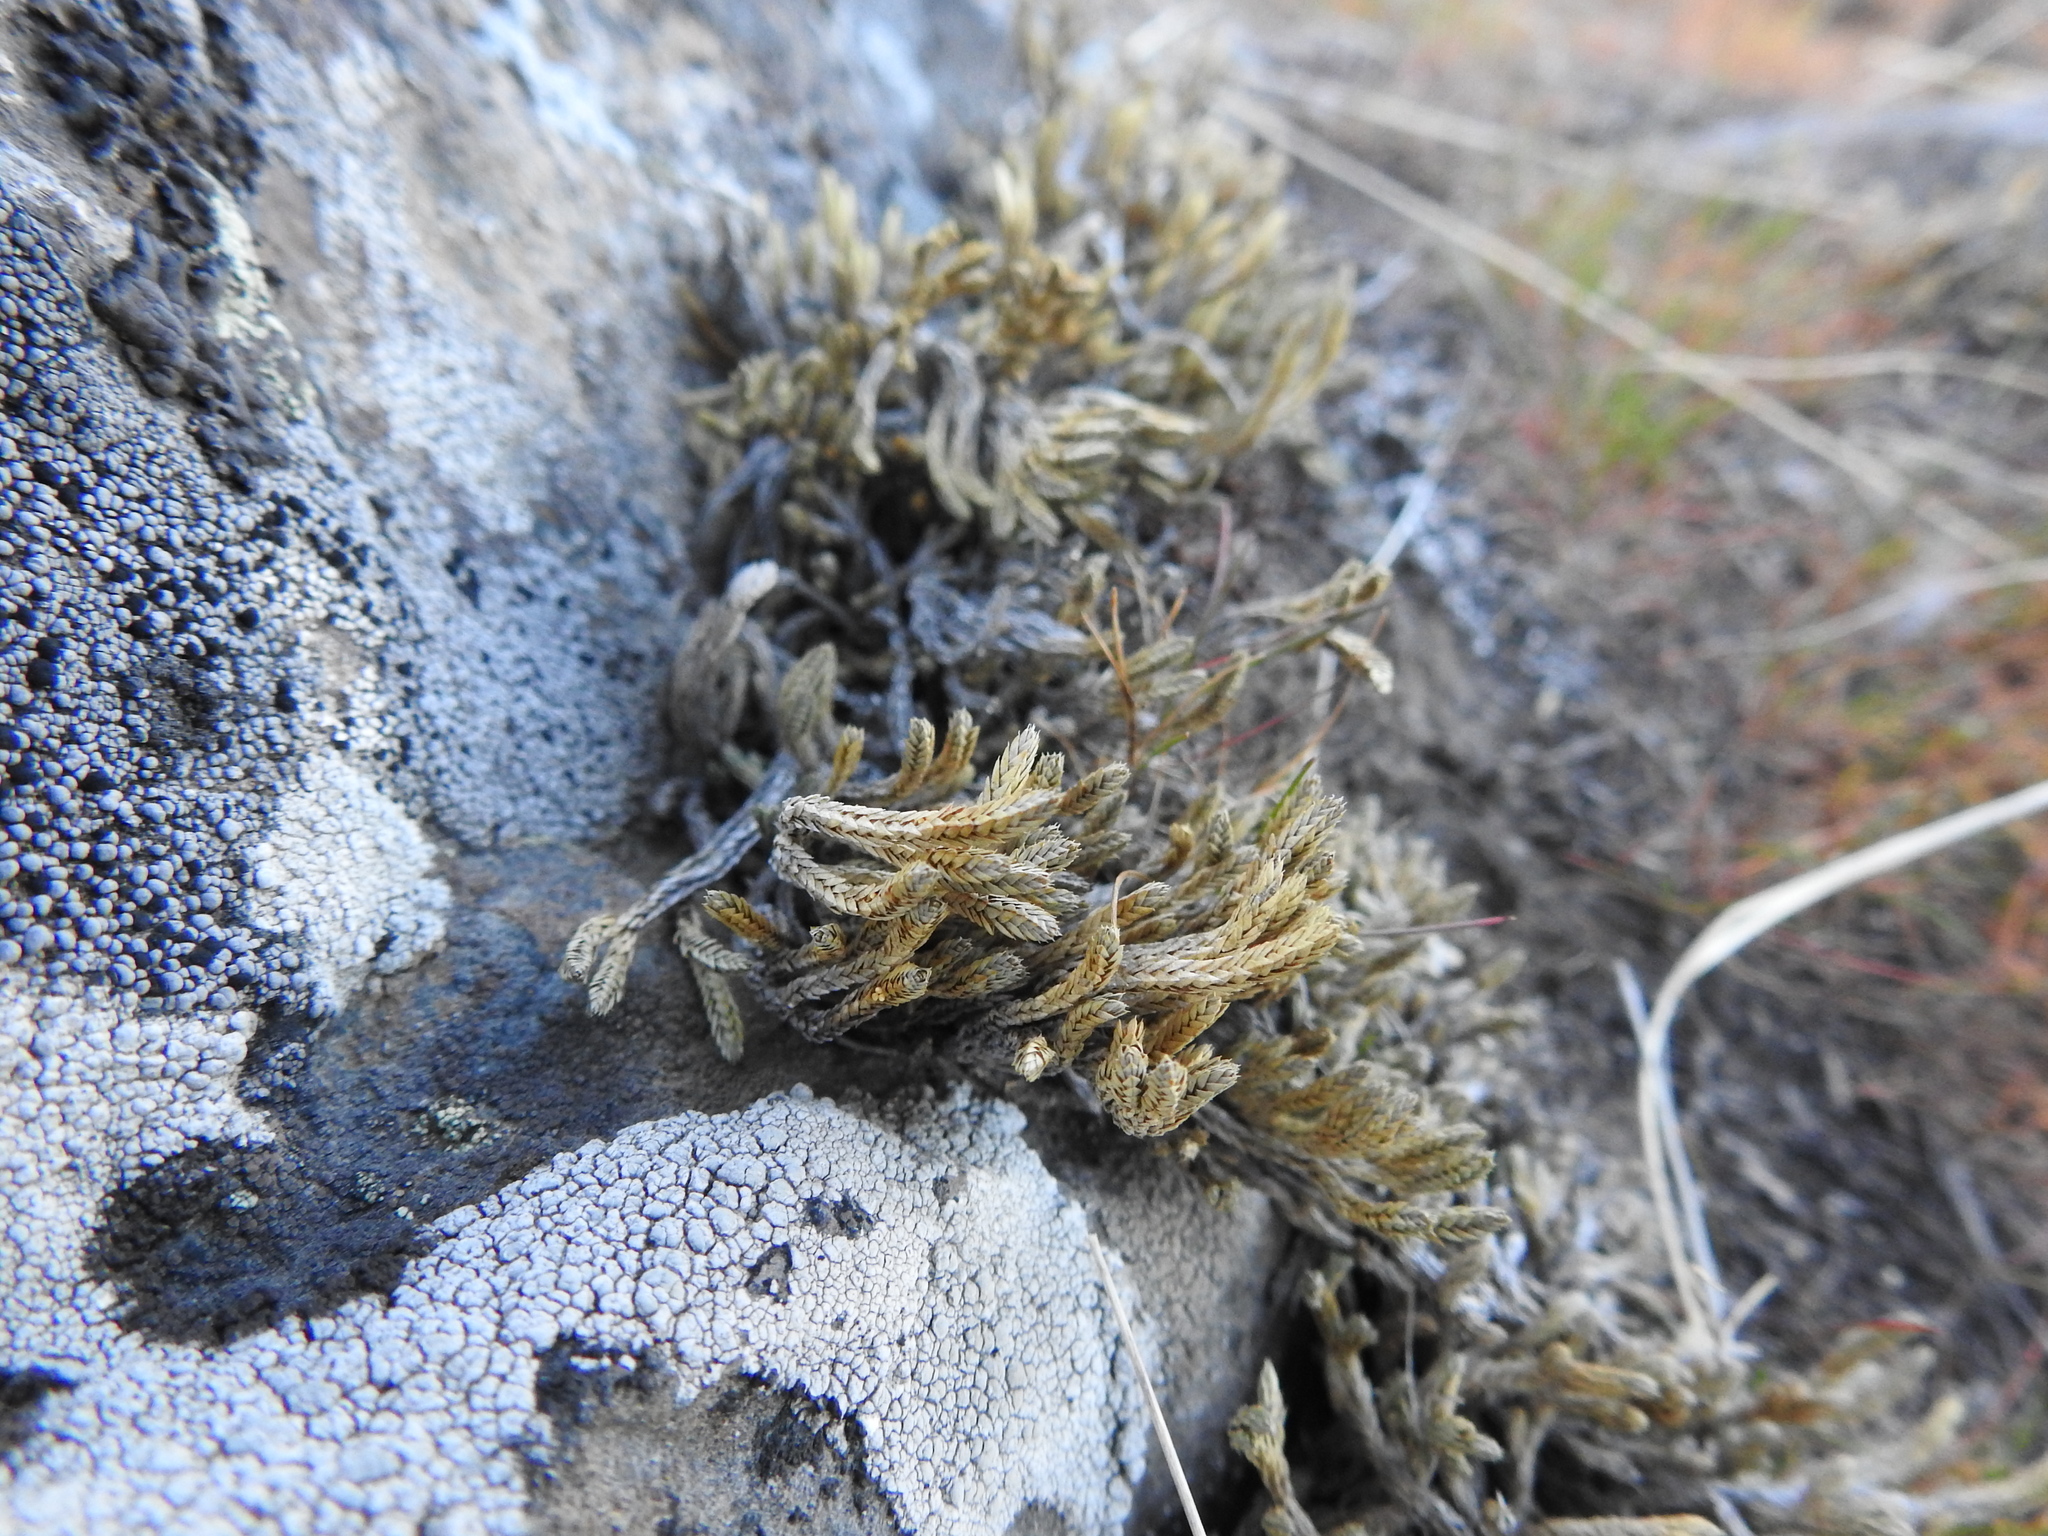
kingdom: Plantae
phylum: Tracheophyta
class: Lycopodiopsida
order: Selaginellales
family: Selaginellaceae
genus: Selaginella
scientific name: Selaginella wallacei
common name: Wallace's selaginella
